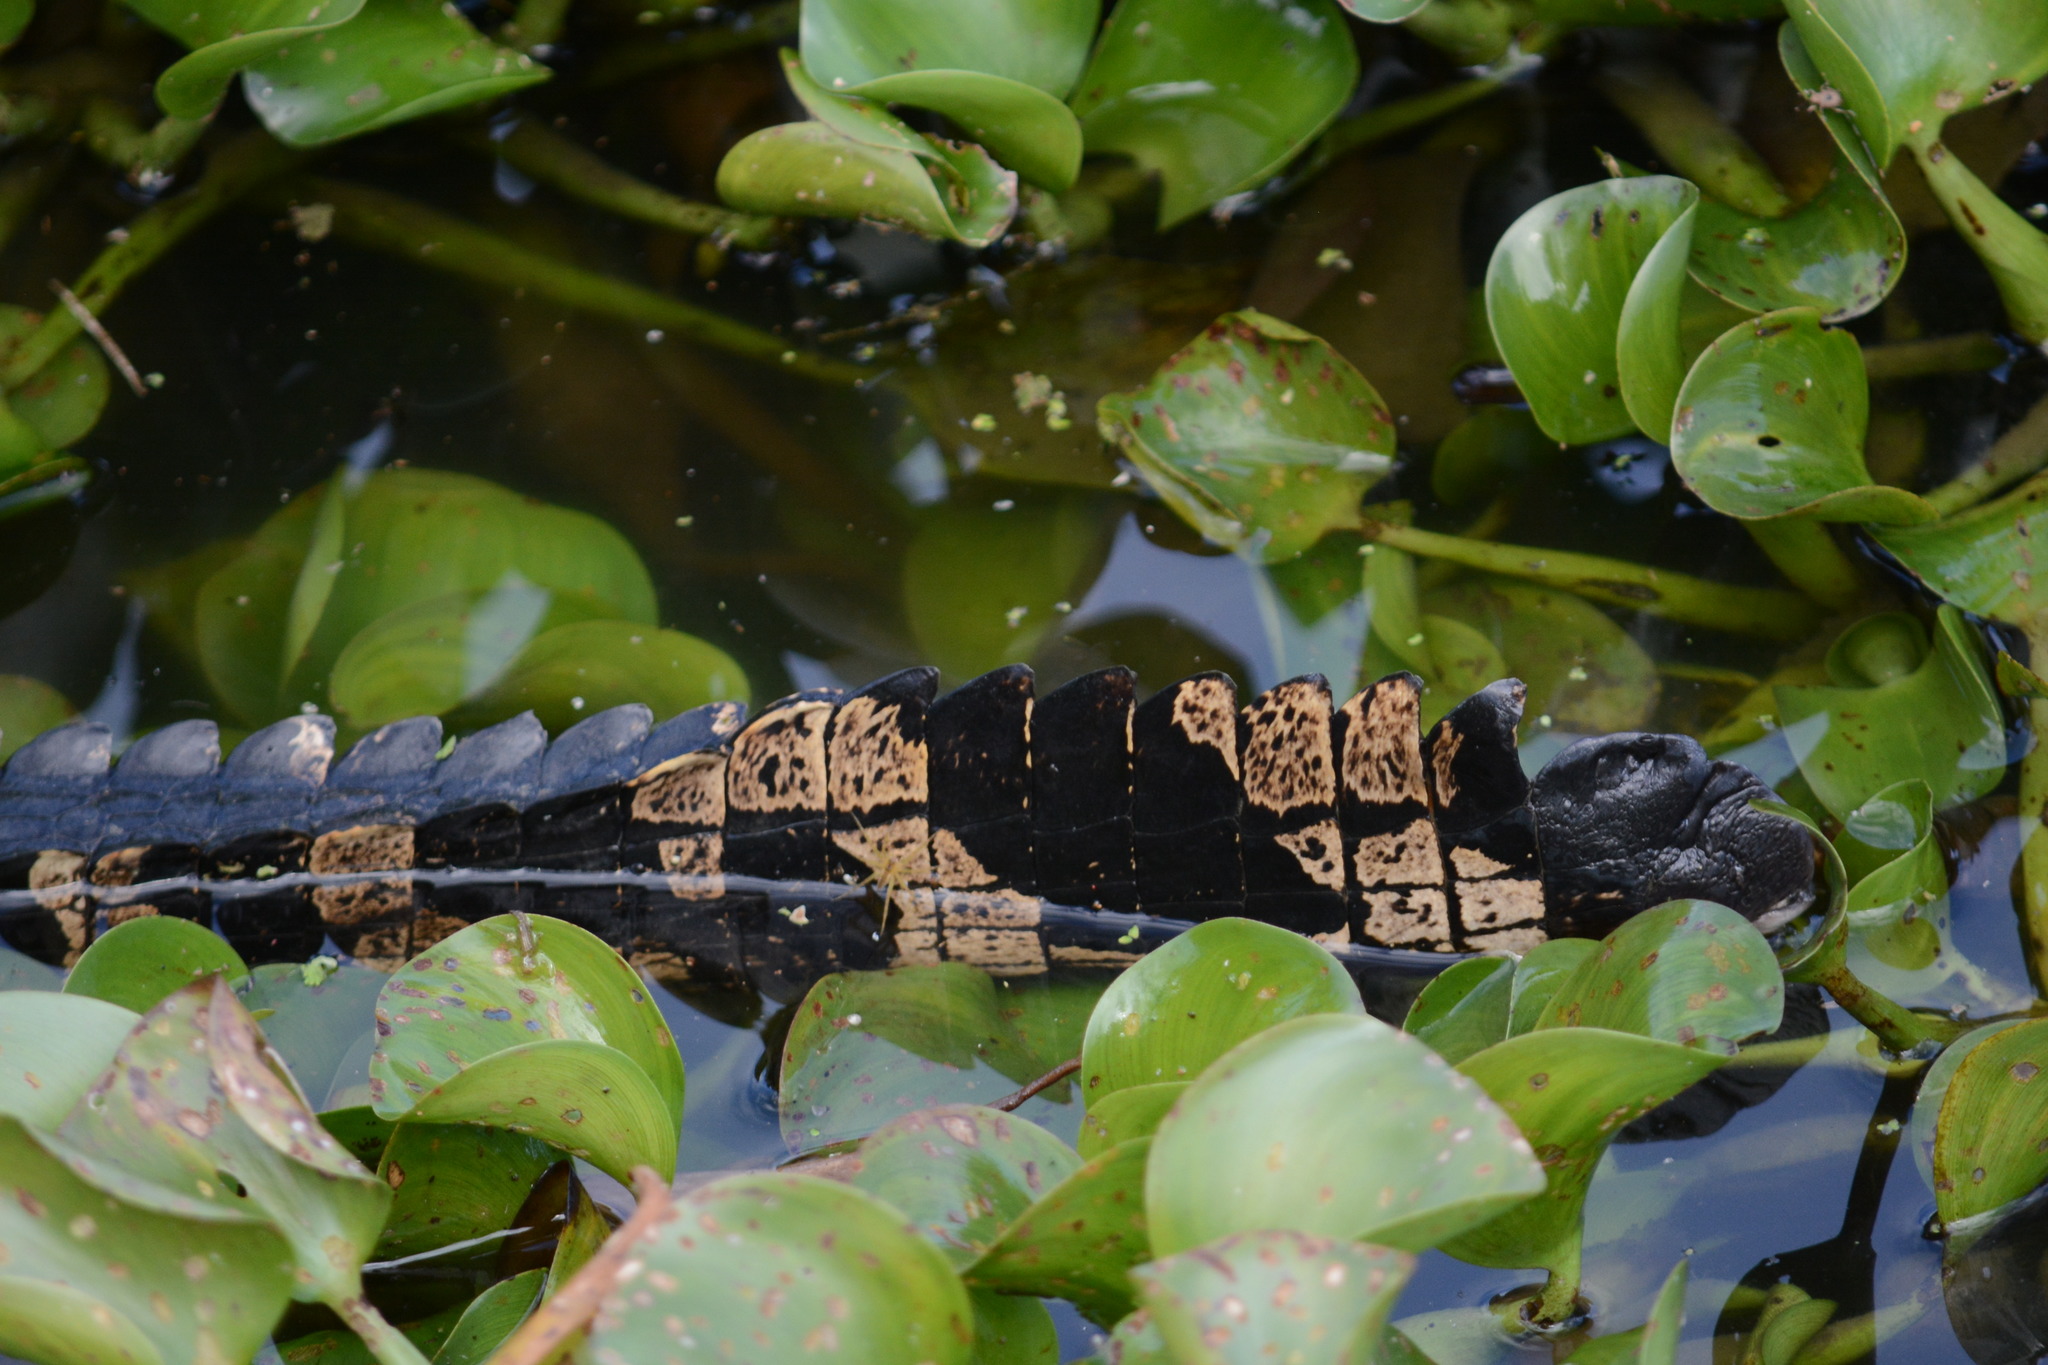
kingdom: Animalia
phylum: Chordata
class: Crocodylia
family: Alligatoridae
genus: Alligator
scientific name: Alligator mississippiensis
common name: American alligator
